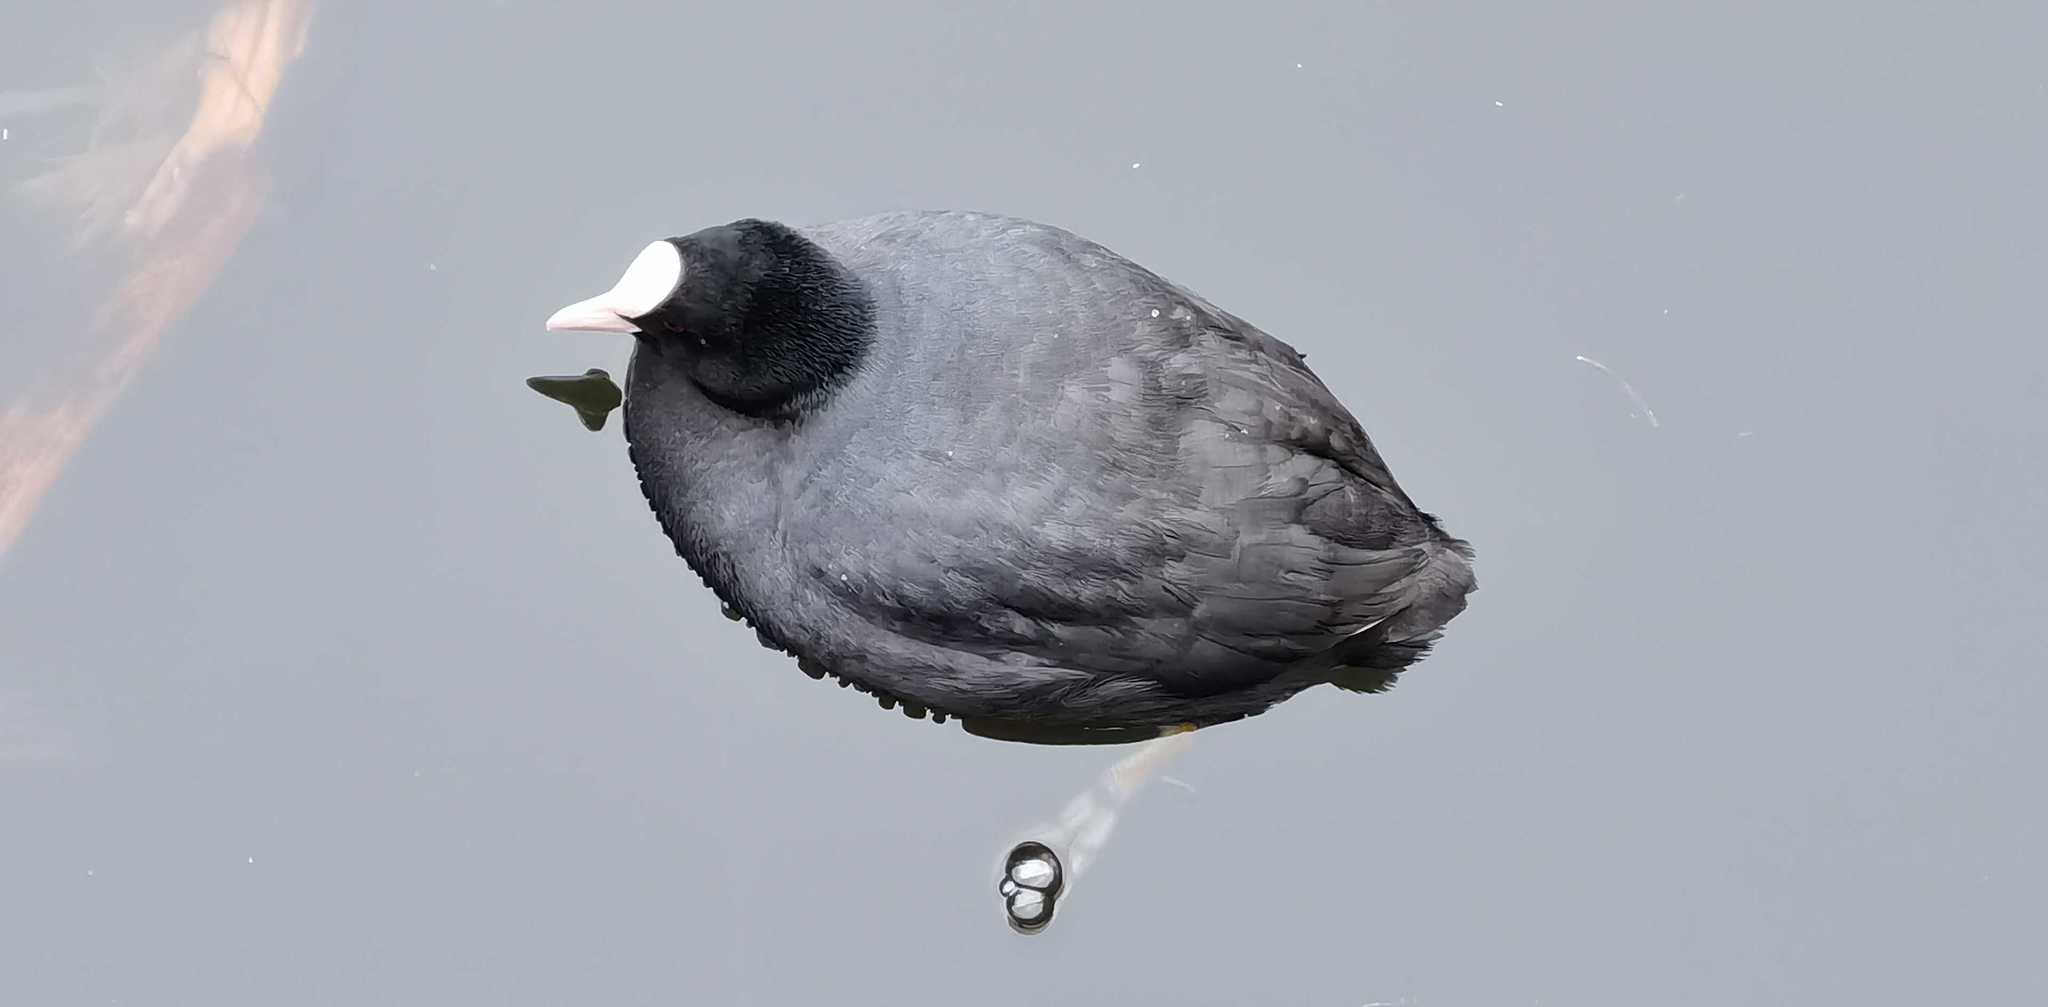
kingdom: Animalia
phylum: Chordata
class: Aves
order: Gruiformes
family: Rallidae
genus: Fulica
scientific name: Fulica atra
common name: Eurasian coot
